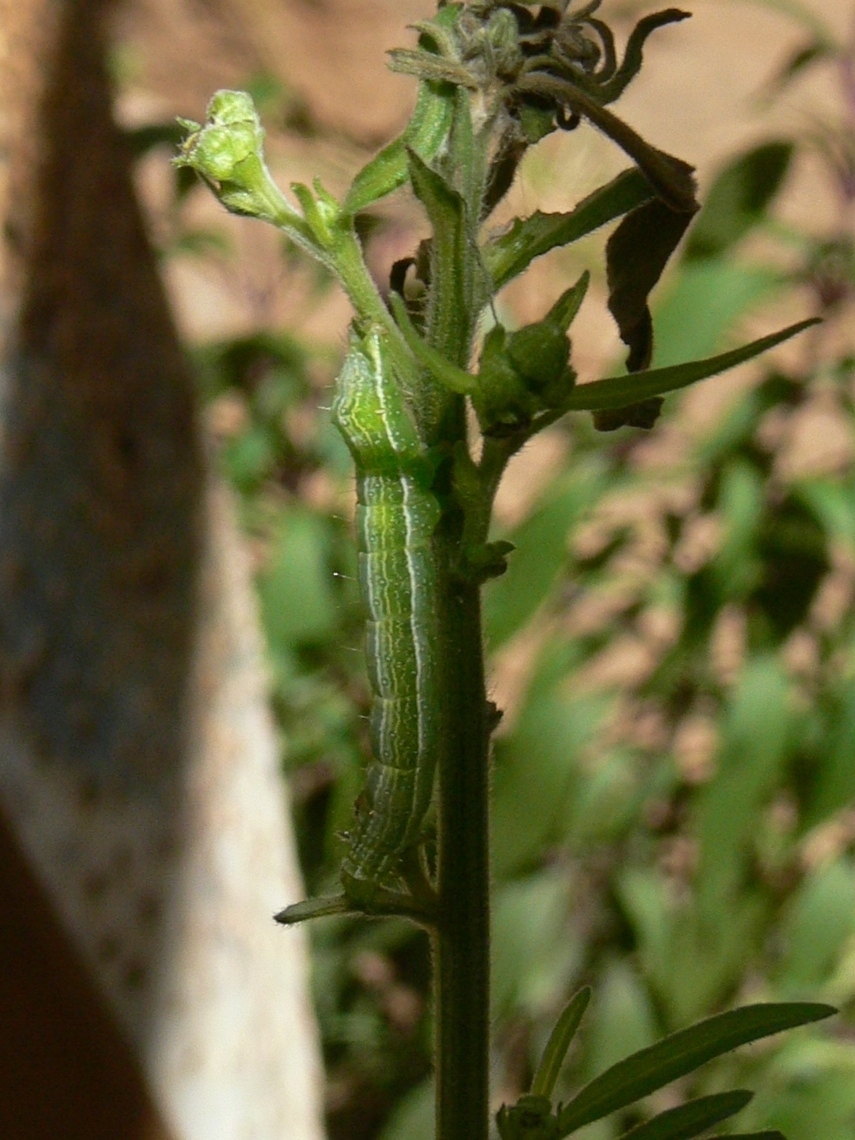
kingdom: Animalia
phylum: Arthropoda
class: Insecta
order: Lepidoptera
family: Noctuidae
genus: Vittaplusia
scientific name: Vittaplusia vittata
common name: Streaked plusia
